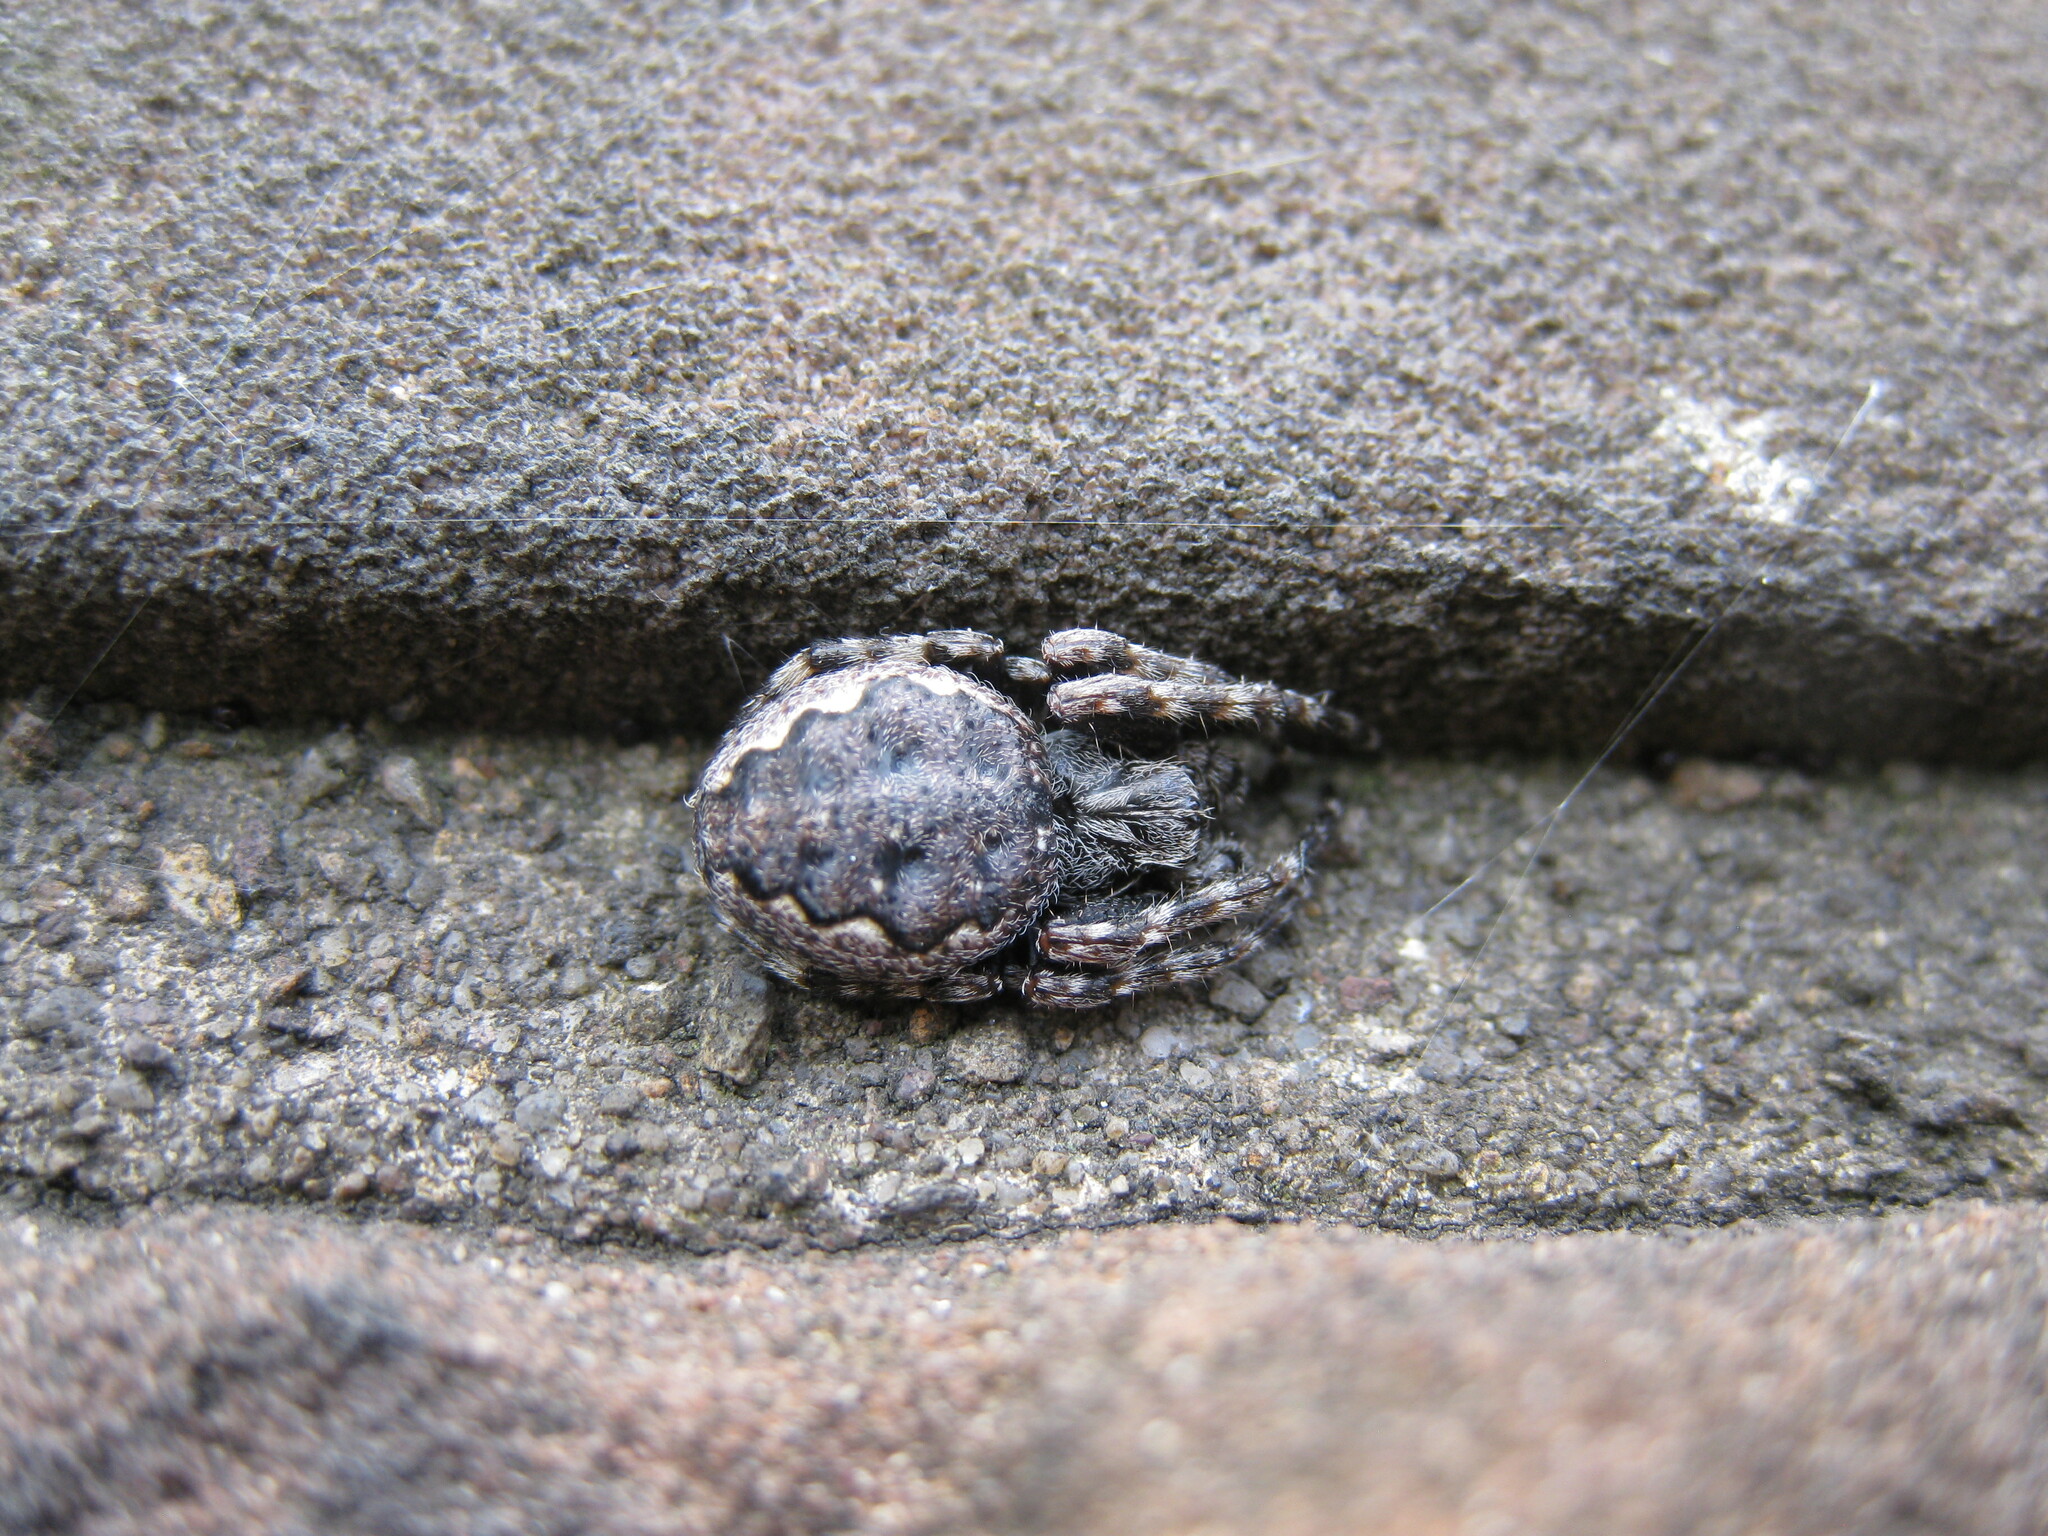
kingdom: Animalia
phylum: Arthropoda
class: Arachnida
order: Araneae
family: Araneidae
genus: Nuctenea
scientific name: Nuctenea umbratica
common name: Toad spider
